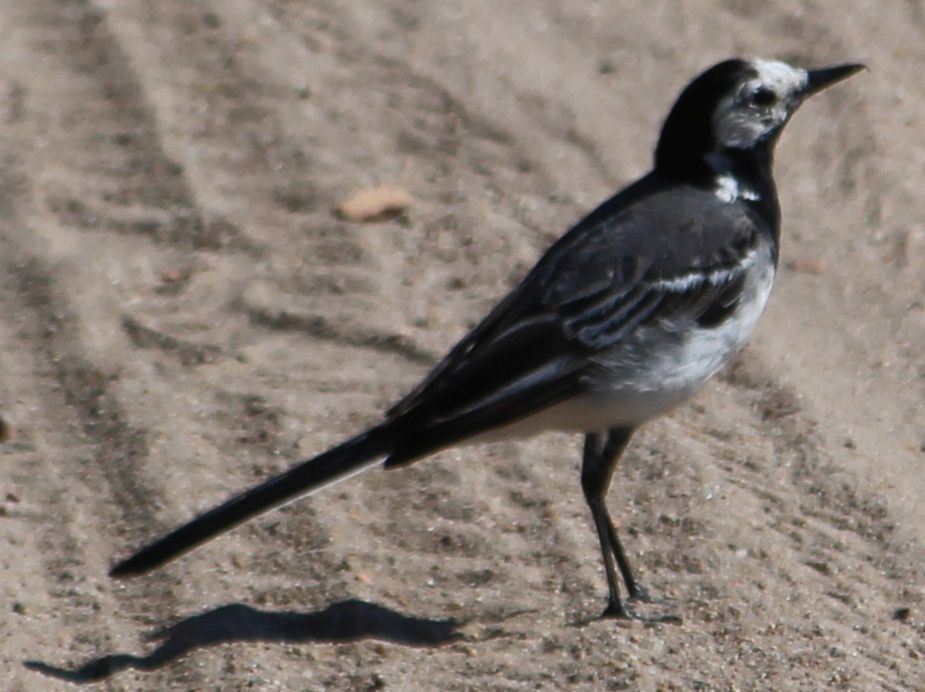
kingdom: Animalia
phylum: Chordata
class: Aves
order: Passeriformes
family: Motacillidae
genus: Motacilla
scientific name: Motacilla alba
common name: White wagtail
